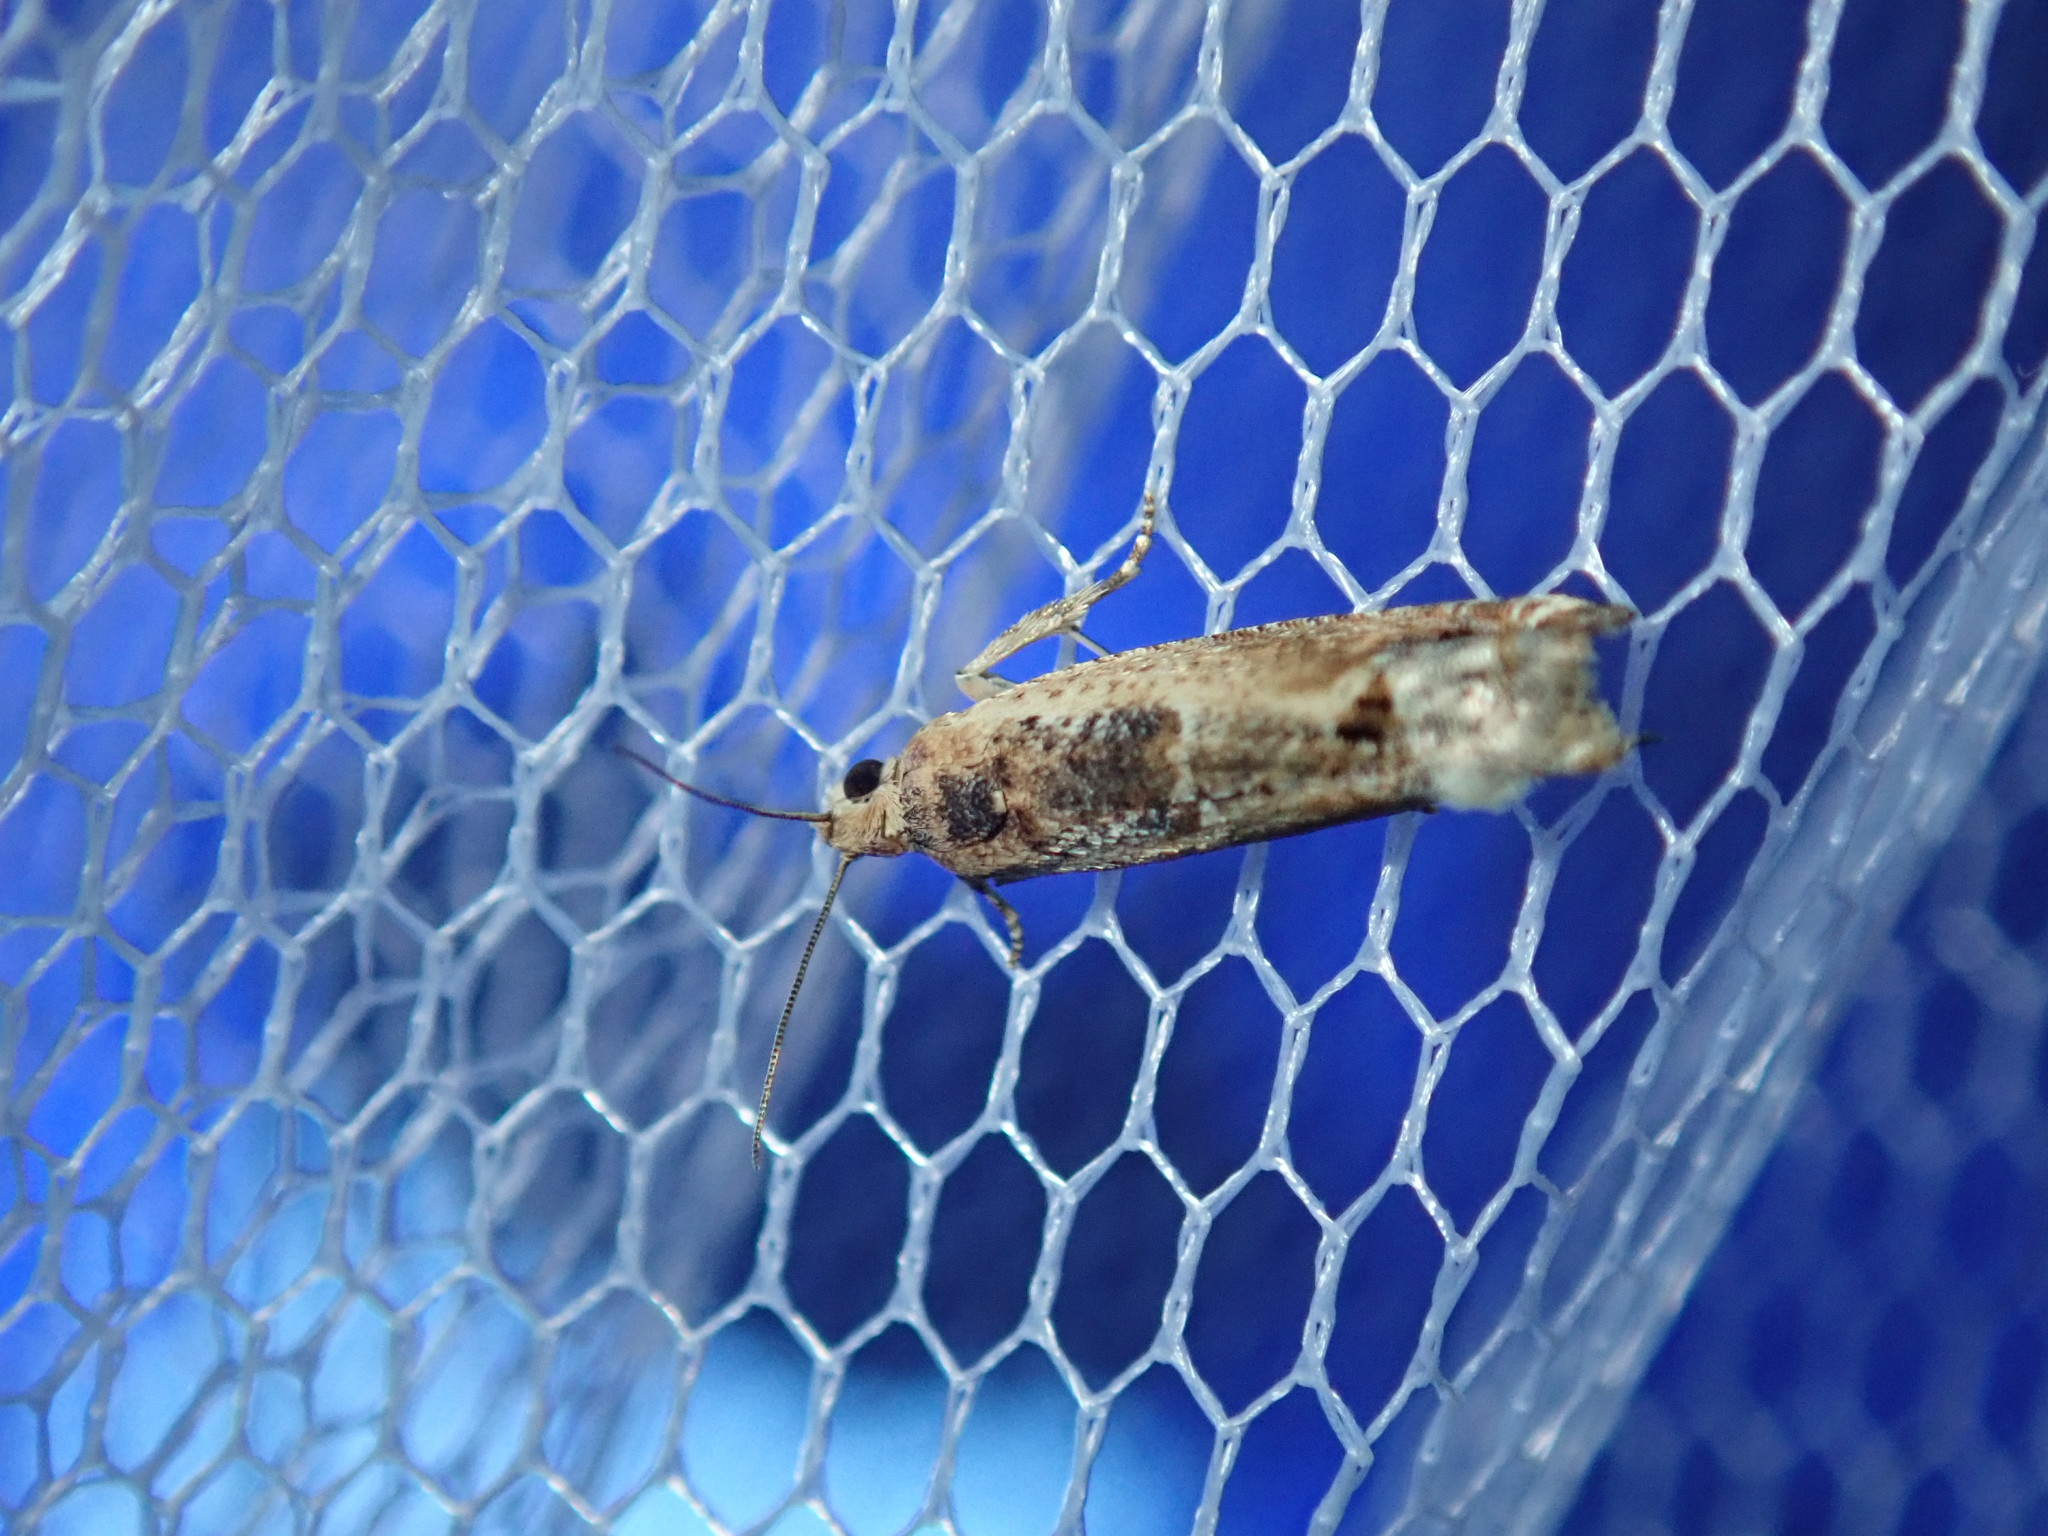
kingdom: Animalia
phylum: Arthropoda
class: Insecta
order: Lepidoptera
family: Tortricidae
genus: Crocidosema
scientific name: Crocidosema plebejana
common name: Southern bell
